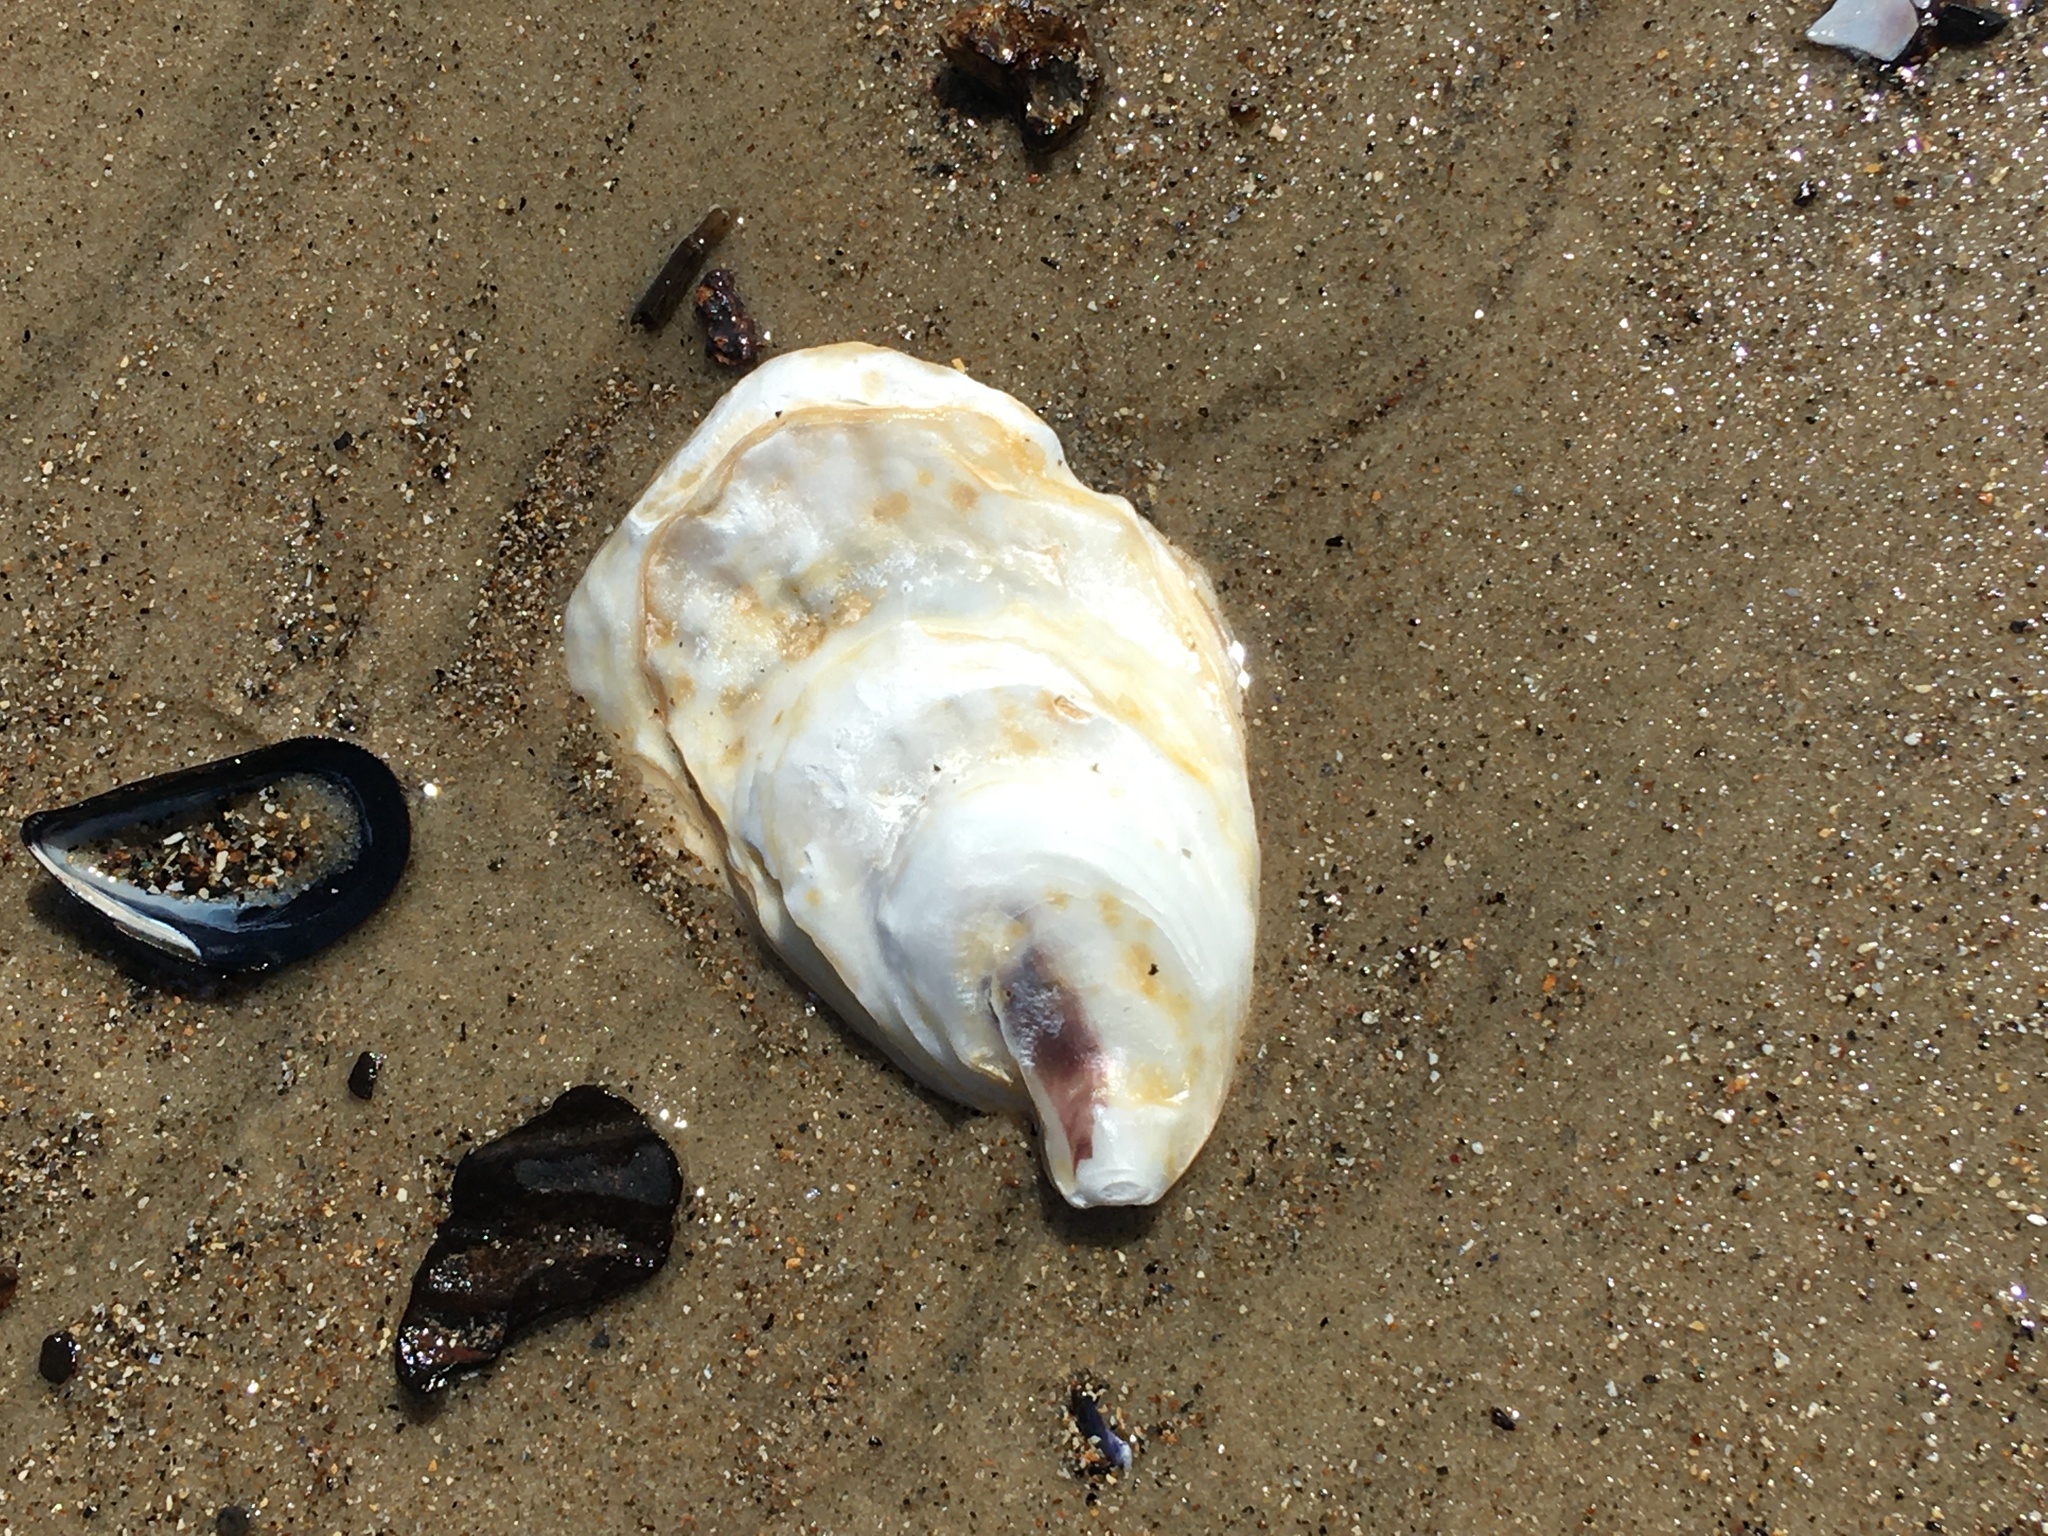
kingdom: Animalia
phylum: Mollusca
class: Bivalvia
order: Ostreida
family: Ostreidae
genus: Crassostrea
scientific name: Crassostrea virginica
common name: American oyster
